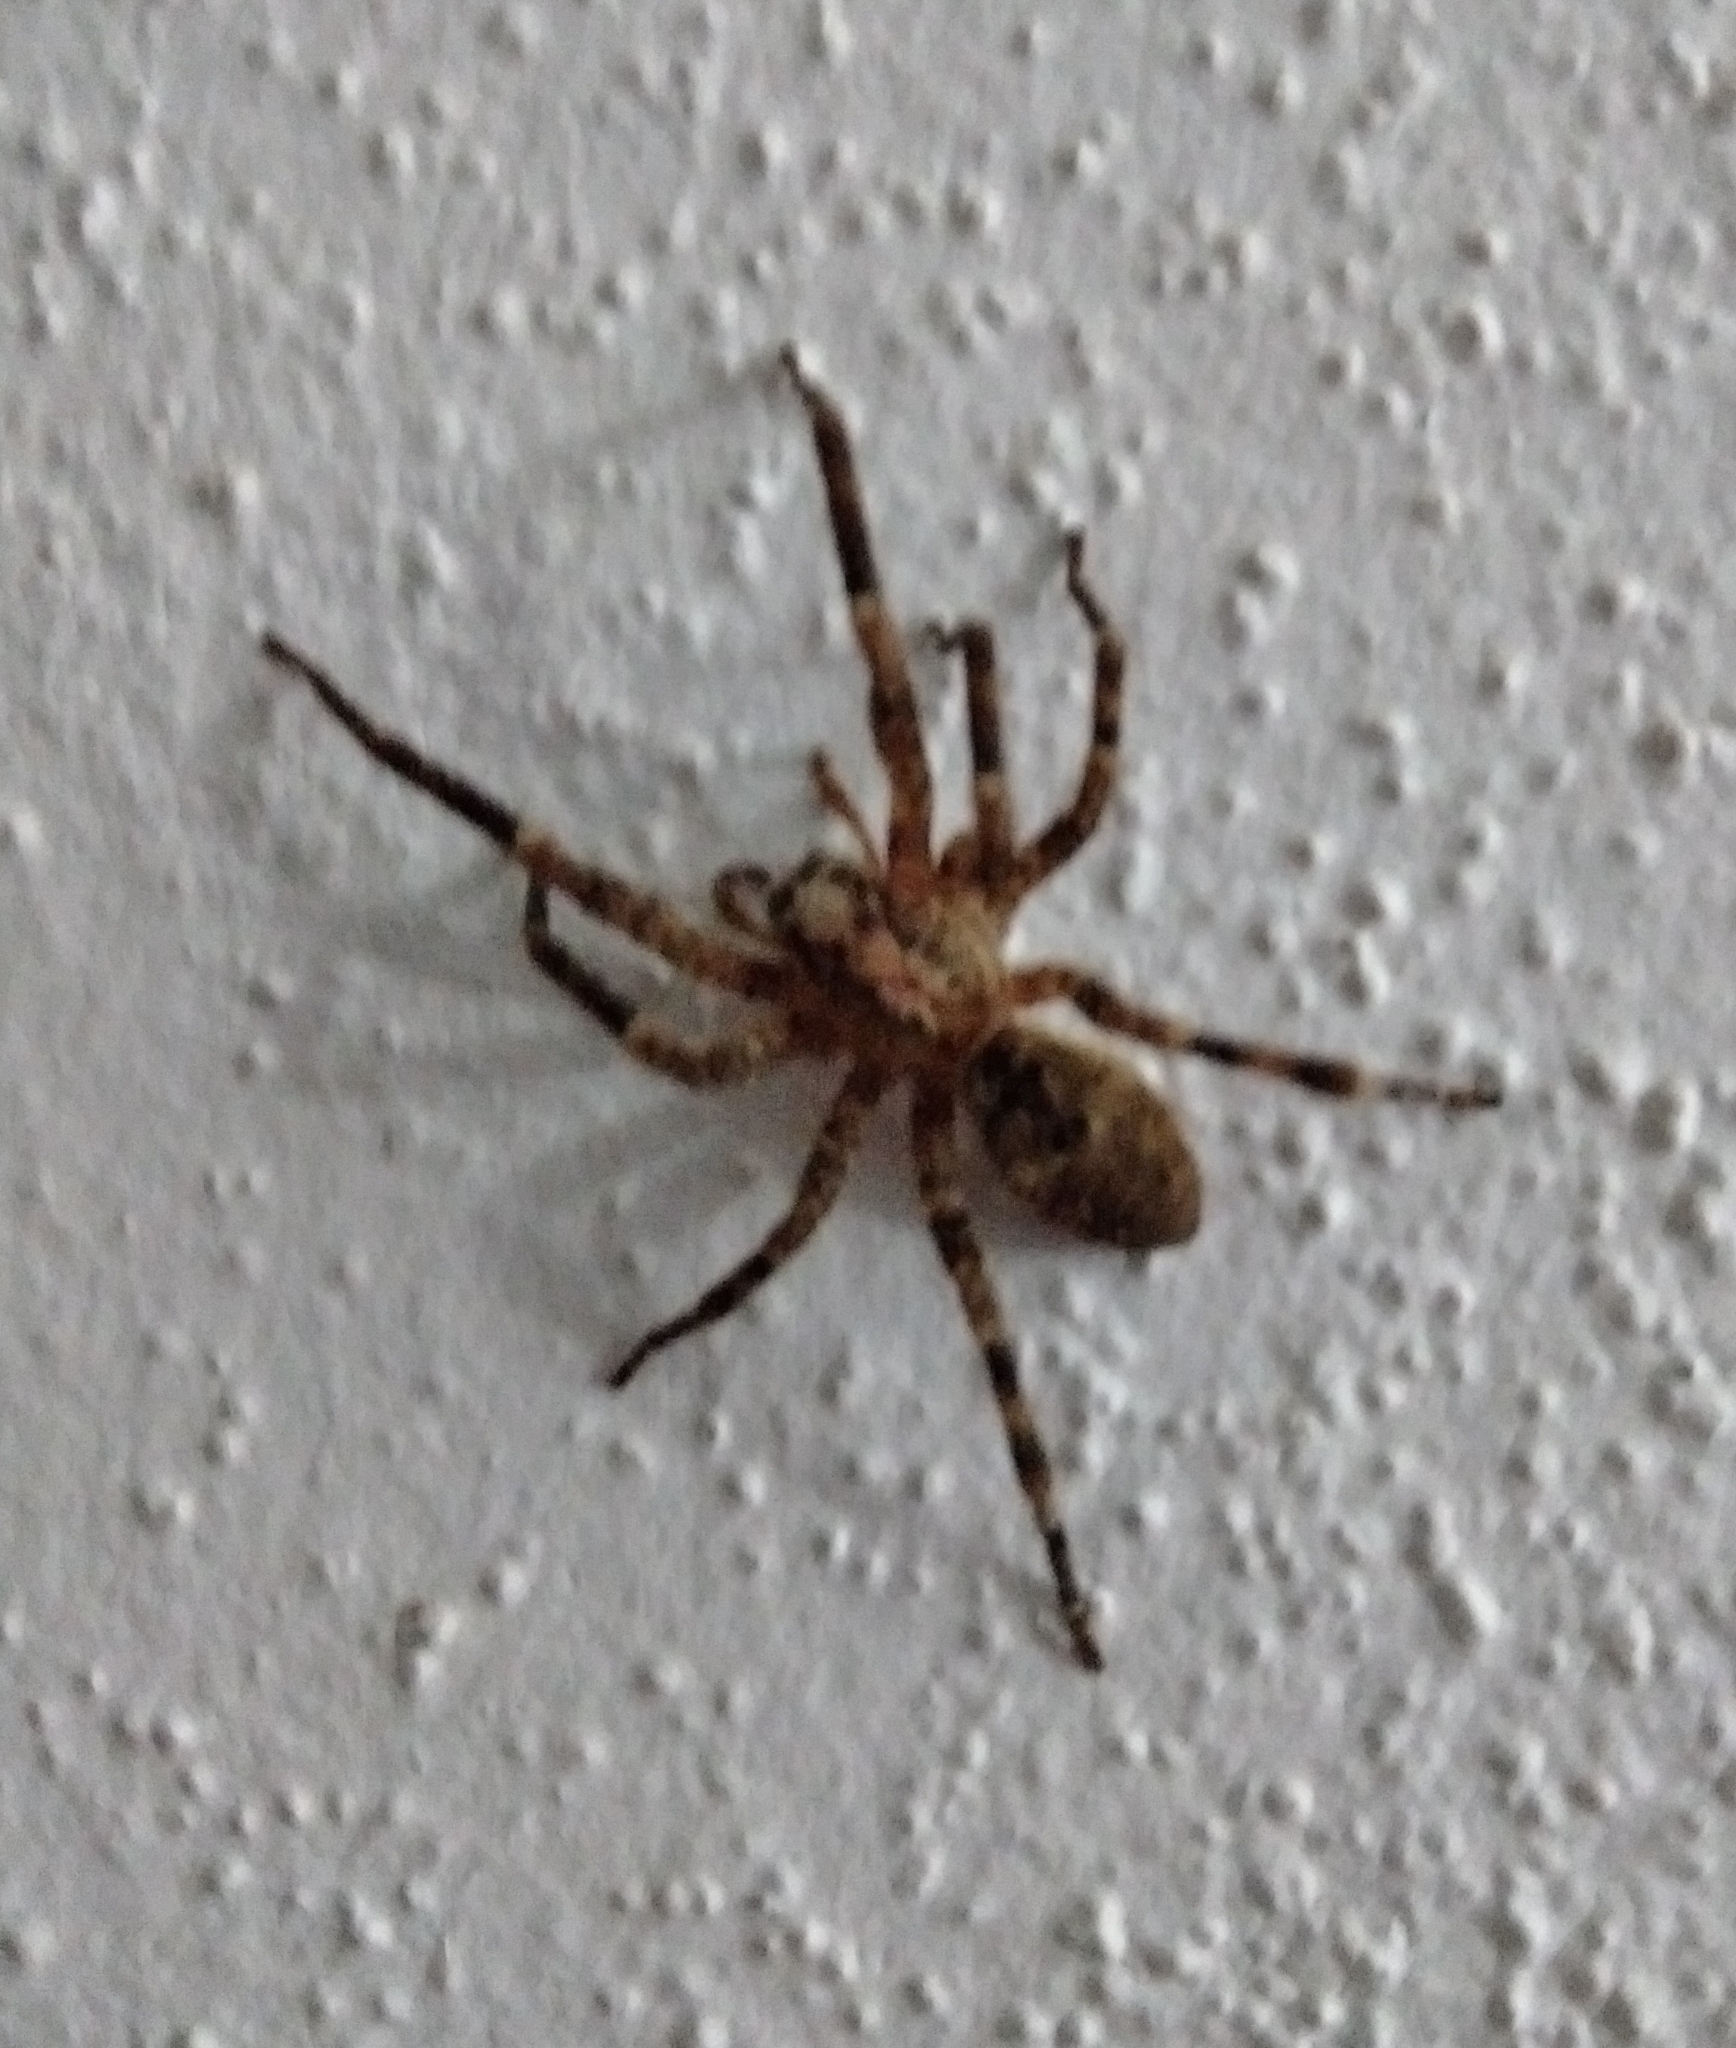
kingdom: Animalia
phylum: Arthropoda
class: Arachnida
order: Araneae
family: Zoropsidae
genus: Zoropsis
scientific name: Zoropsis spinimana
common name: Zoropsid spider
